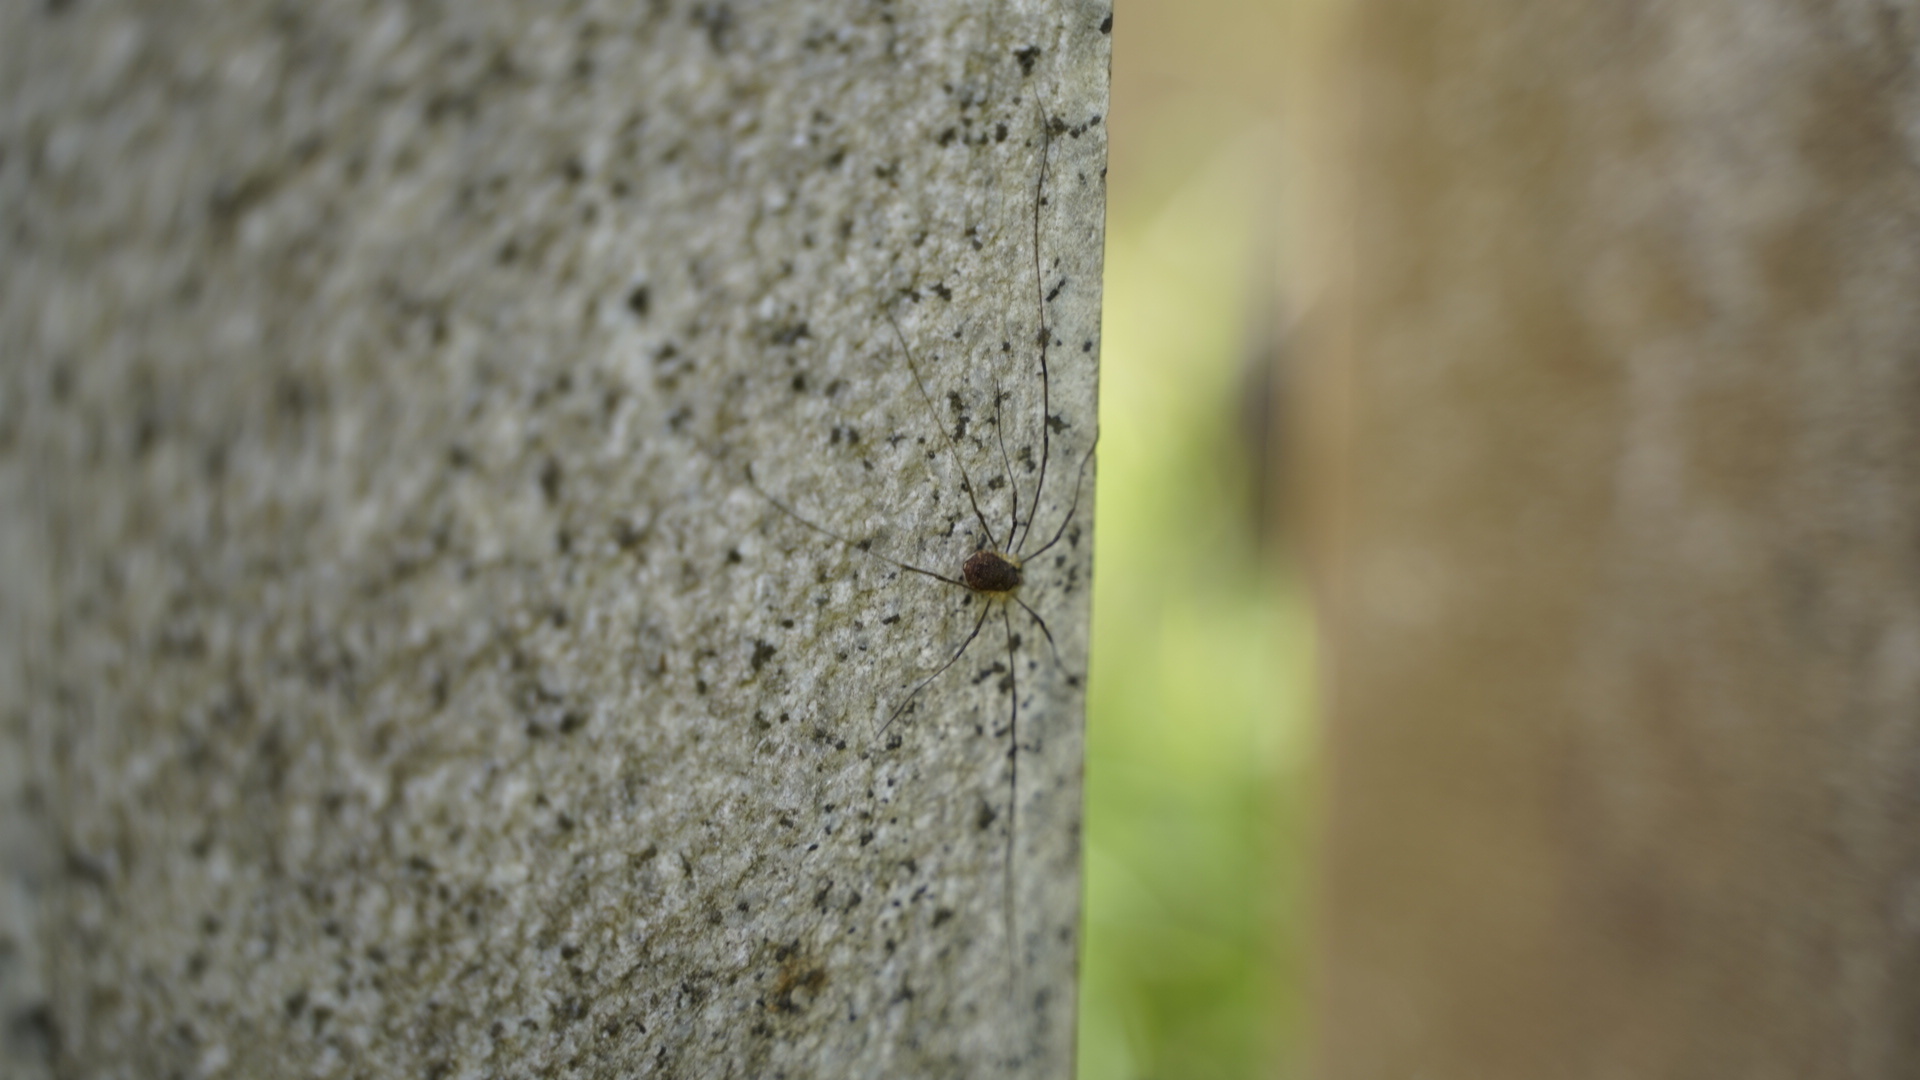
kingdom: Animalia
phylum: Arthropoda
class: Arachnida
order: Opiliones
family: Phalangiidae
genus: Odiellus
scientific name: Odiellus aspersus
